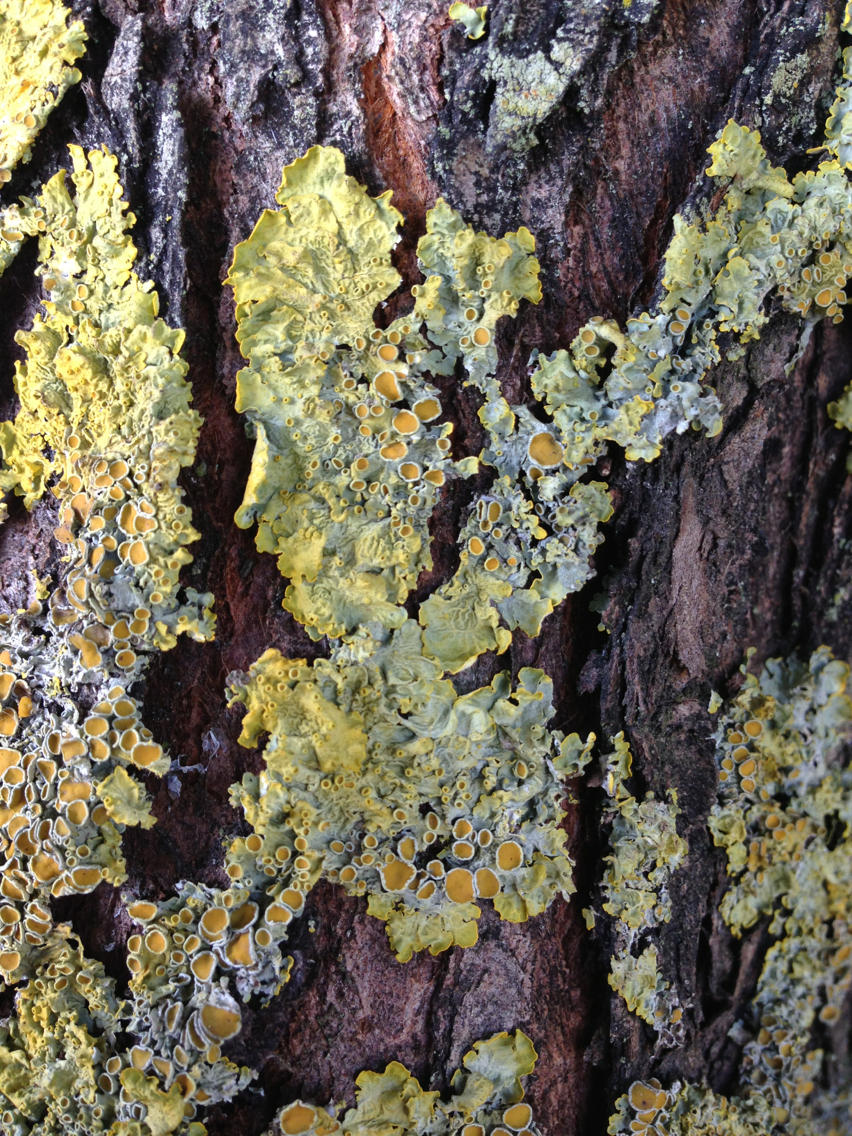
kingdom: Fungi
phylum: Ascomycota
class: Lecanoromycetes
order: Teloschistales
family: Teloschistaceae
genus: Xanthoria
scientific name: Xanthoria parietina
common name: Common orange lichen
